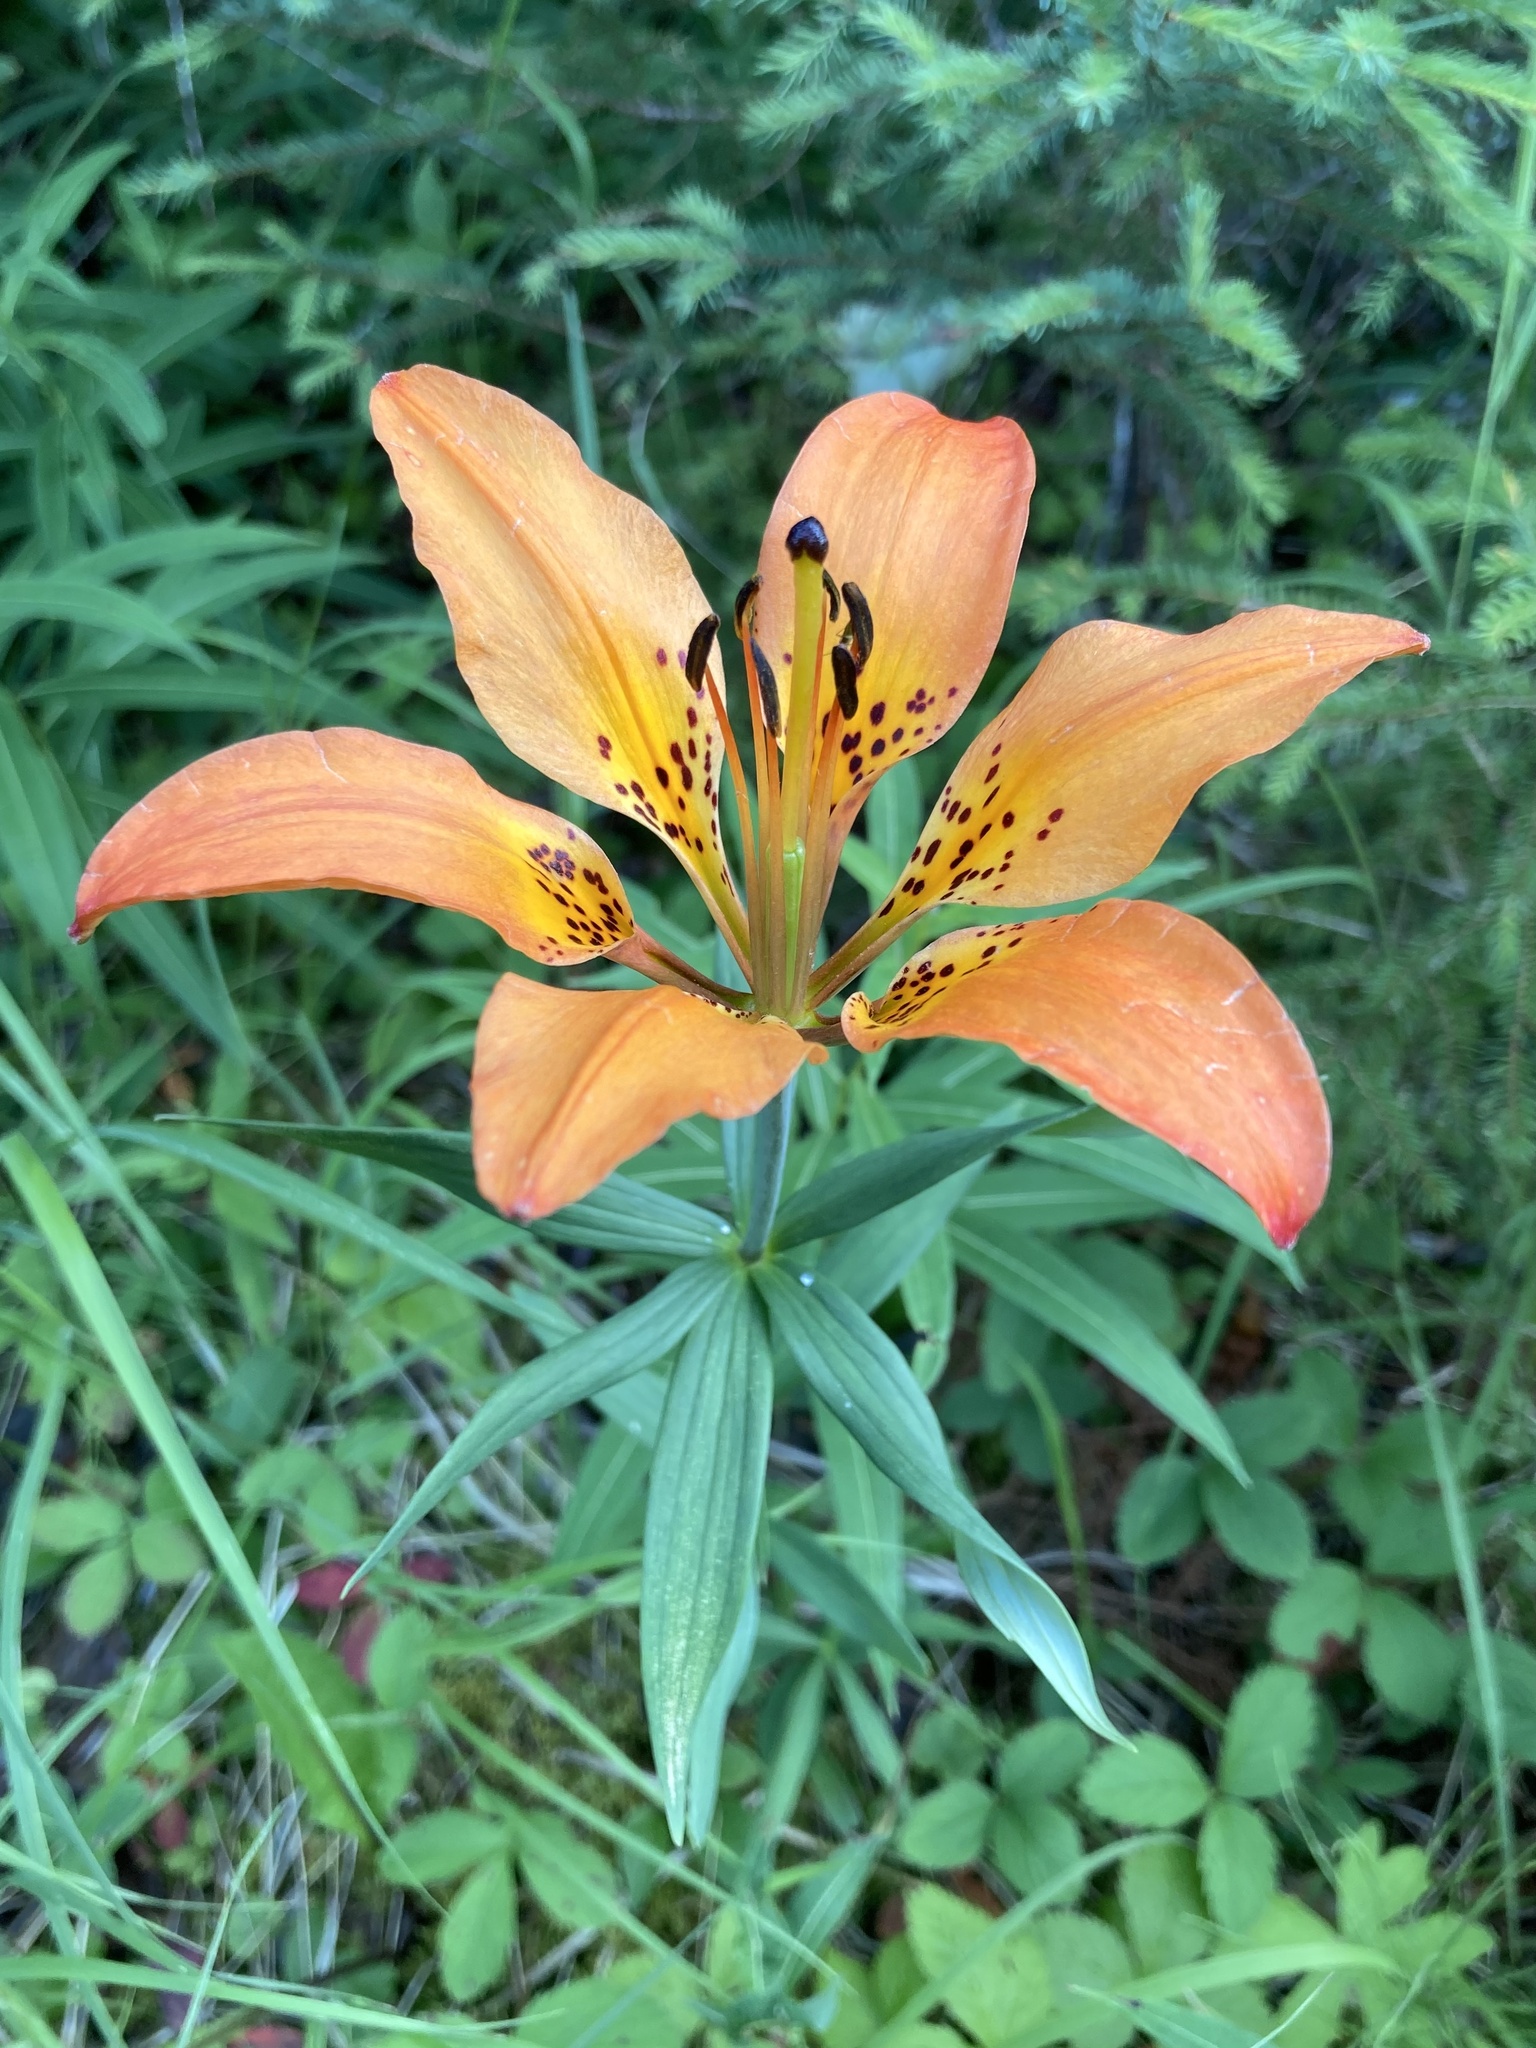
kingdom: Plantae
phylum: Tracheophyta
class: Liliopsida
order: Liliales
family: Liliaceae
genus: Lilium
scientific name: Lilium philadelphicum
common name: Red lily
